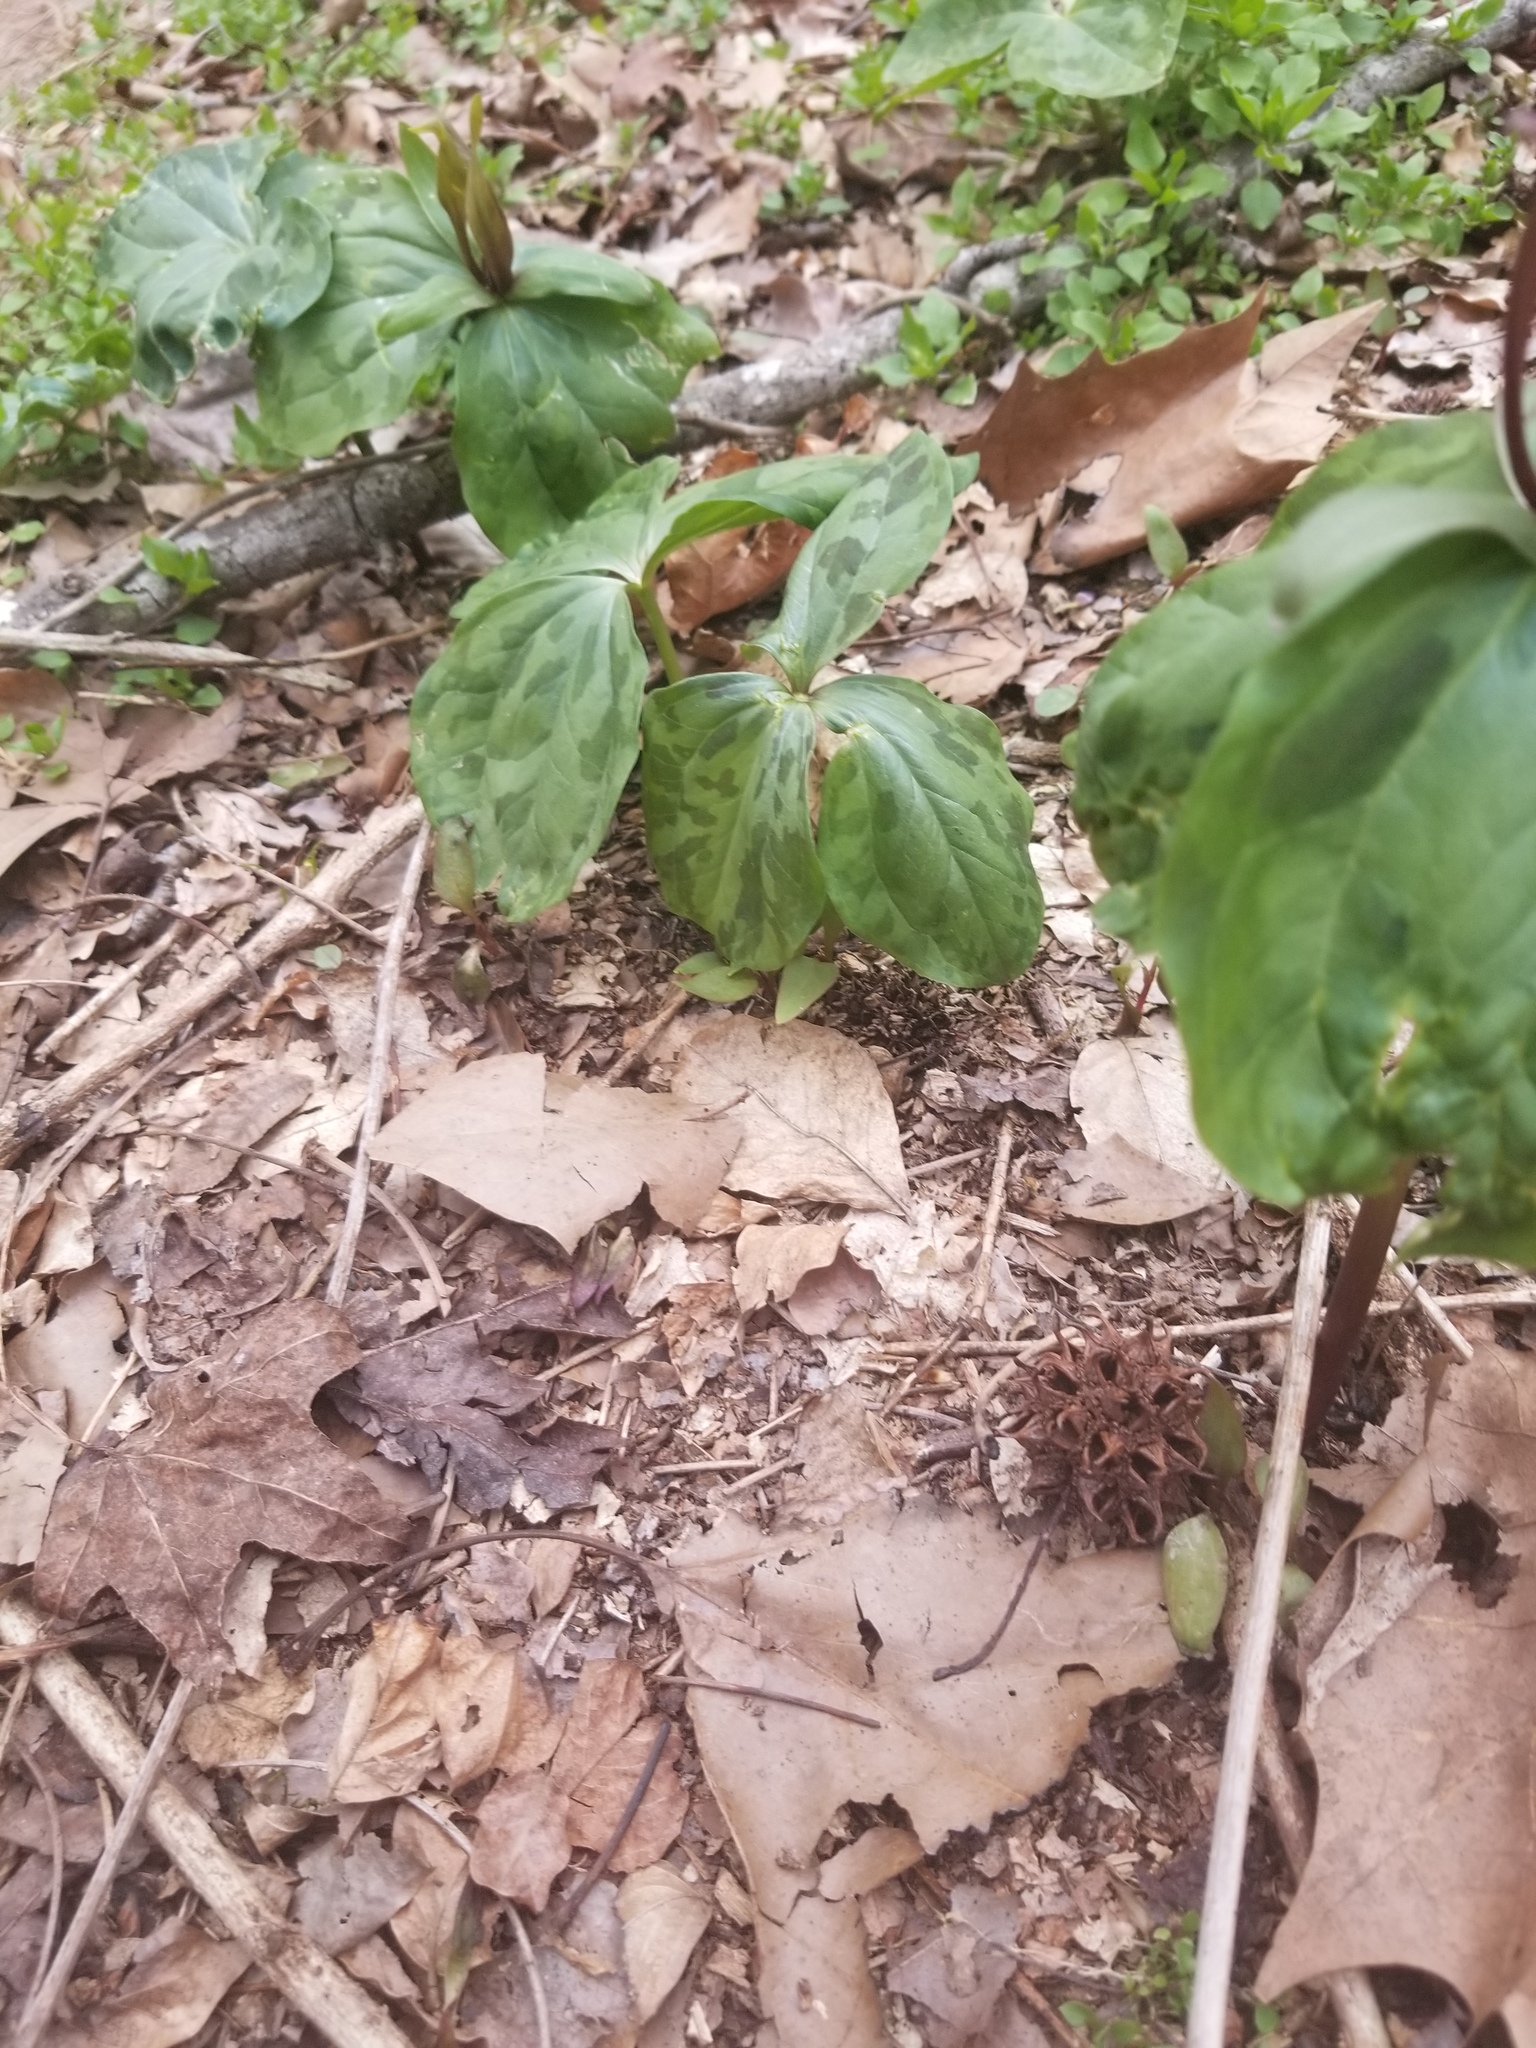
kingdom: Animalia
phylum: Arthropoda
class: Insecta
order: Hemiptera
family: Coreidae
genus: Leptoglossus
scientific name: Leptoglossus phyllopus
